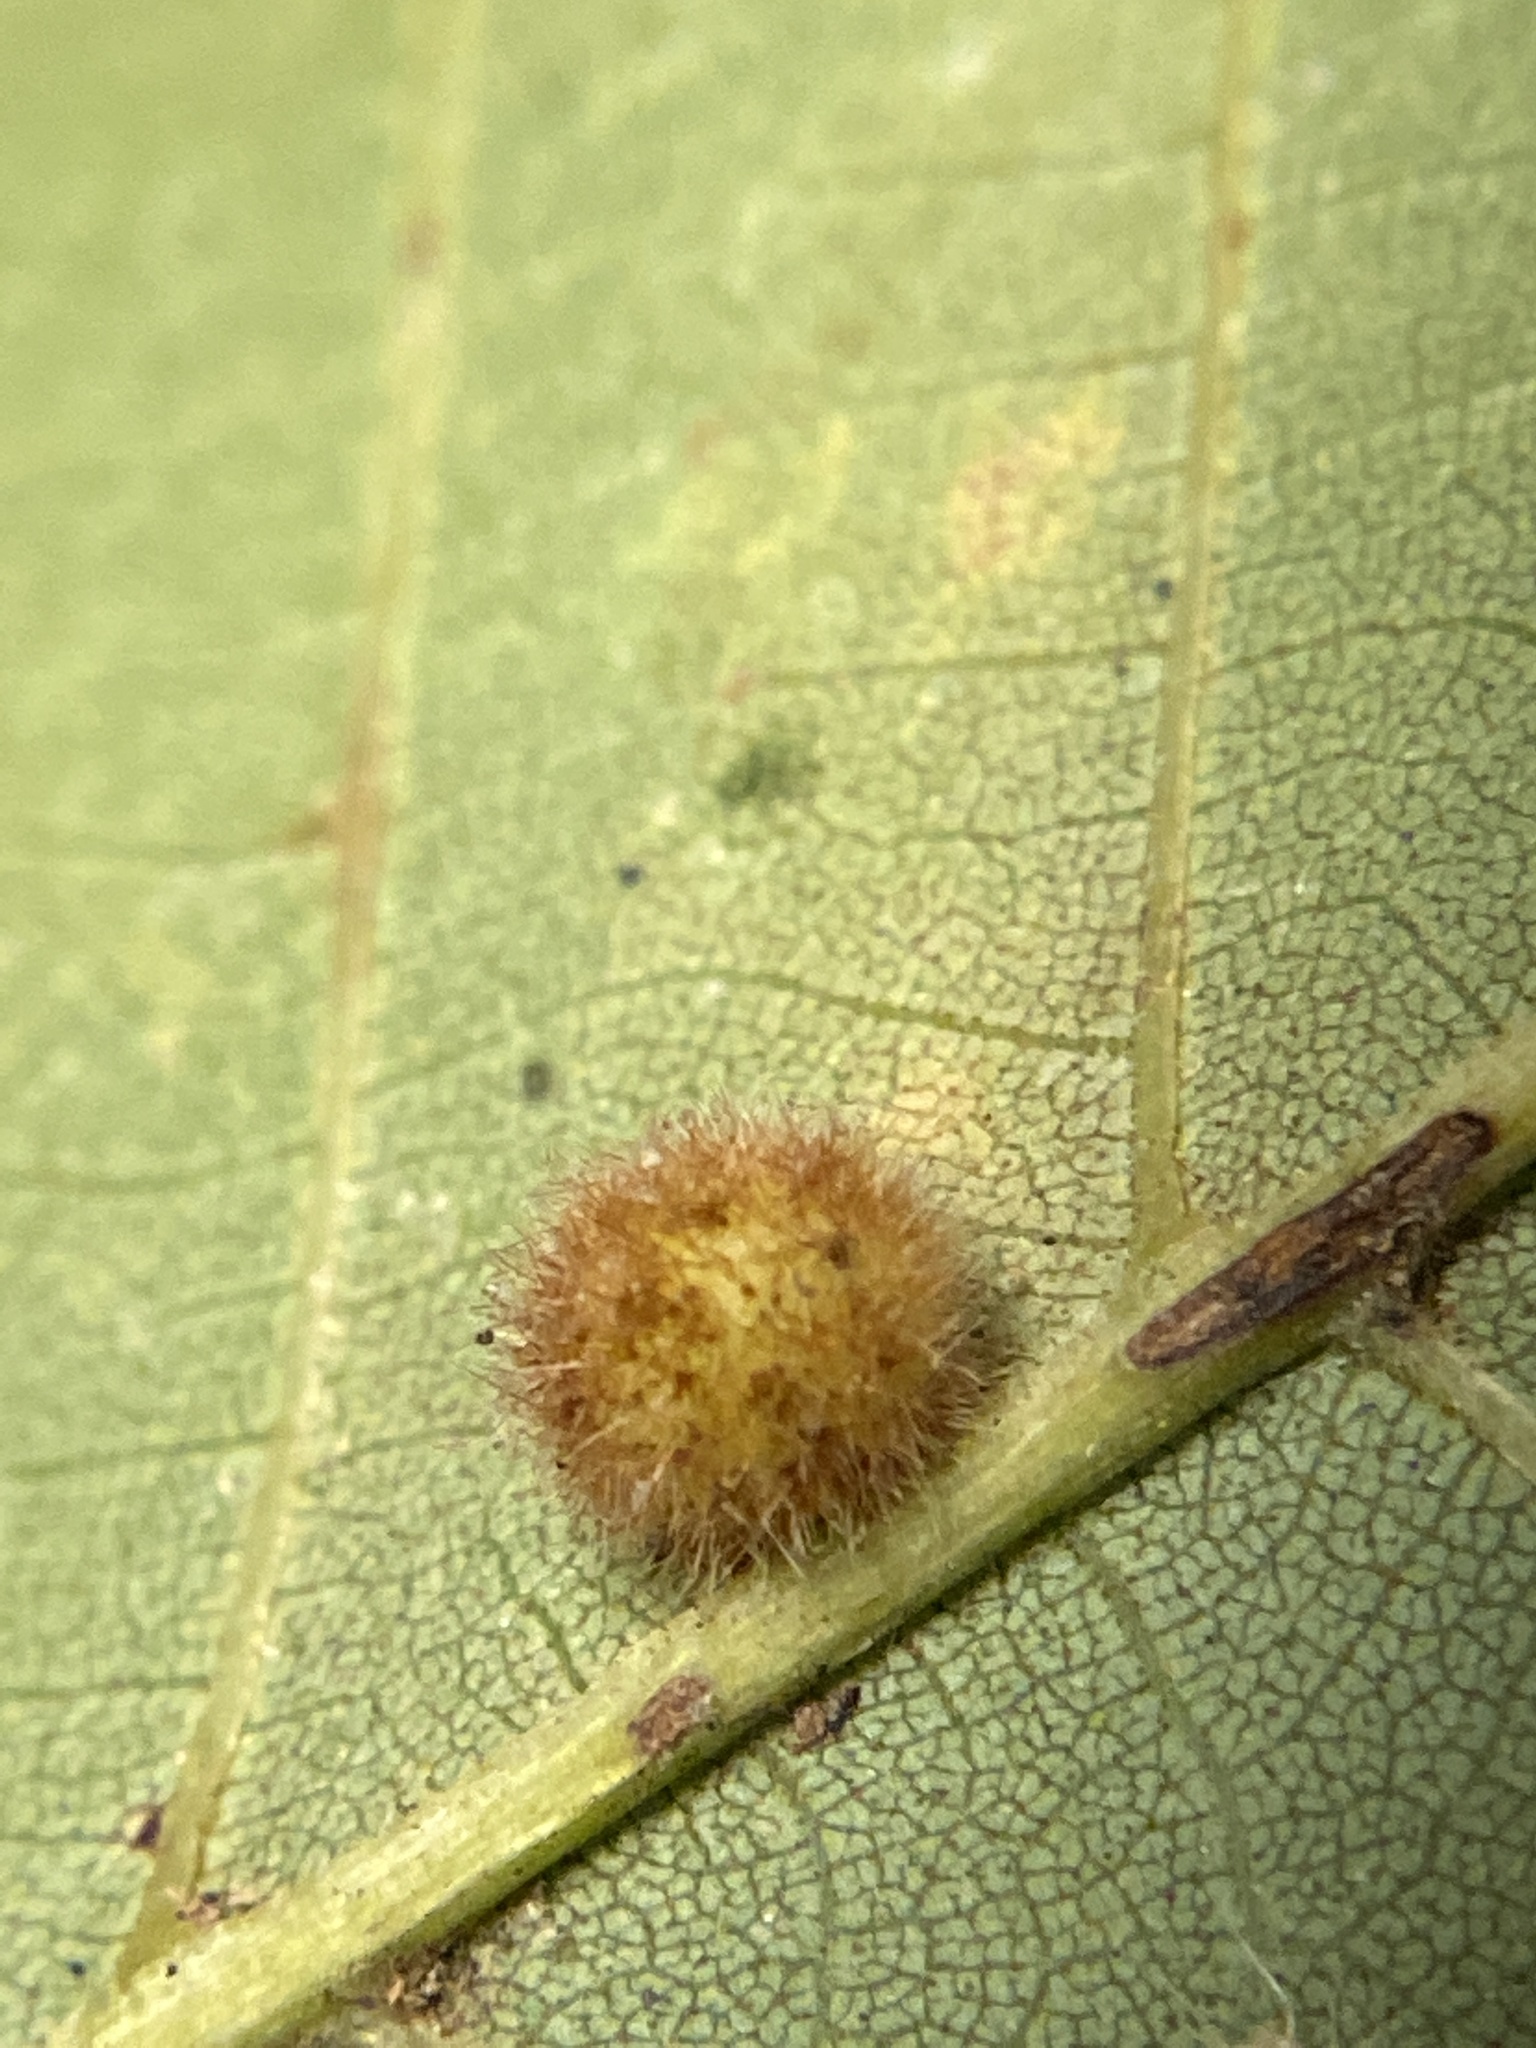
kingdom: Animalia
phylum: Arthropoda
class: Insecta
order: Diptera
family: Cecidomyiidae
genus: Caryomyia
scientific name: Caryomyia spherica
